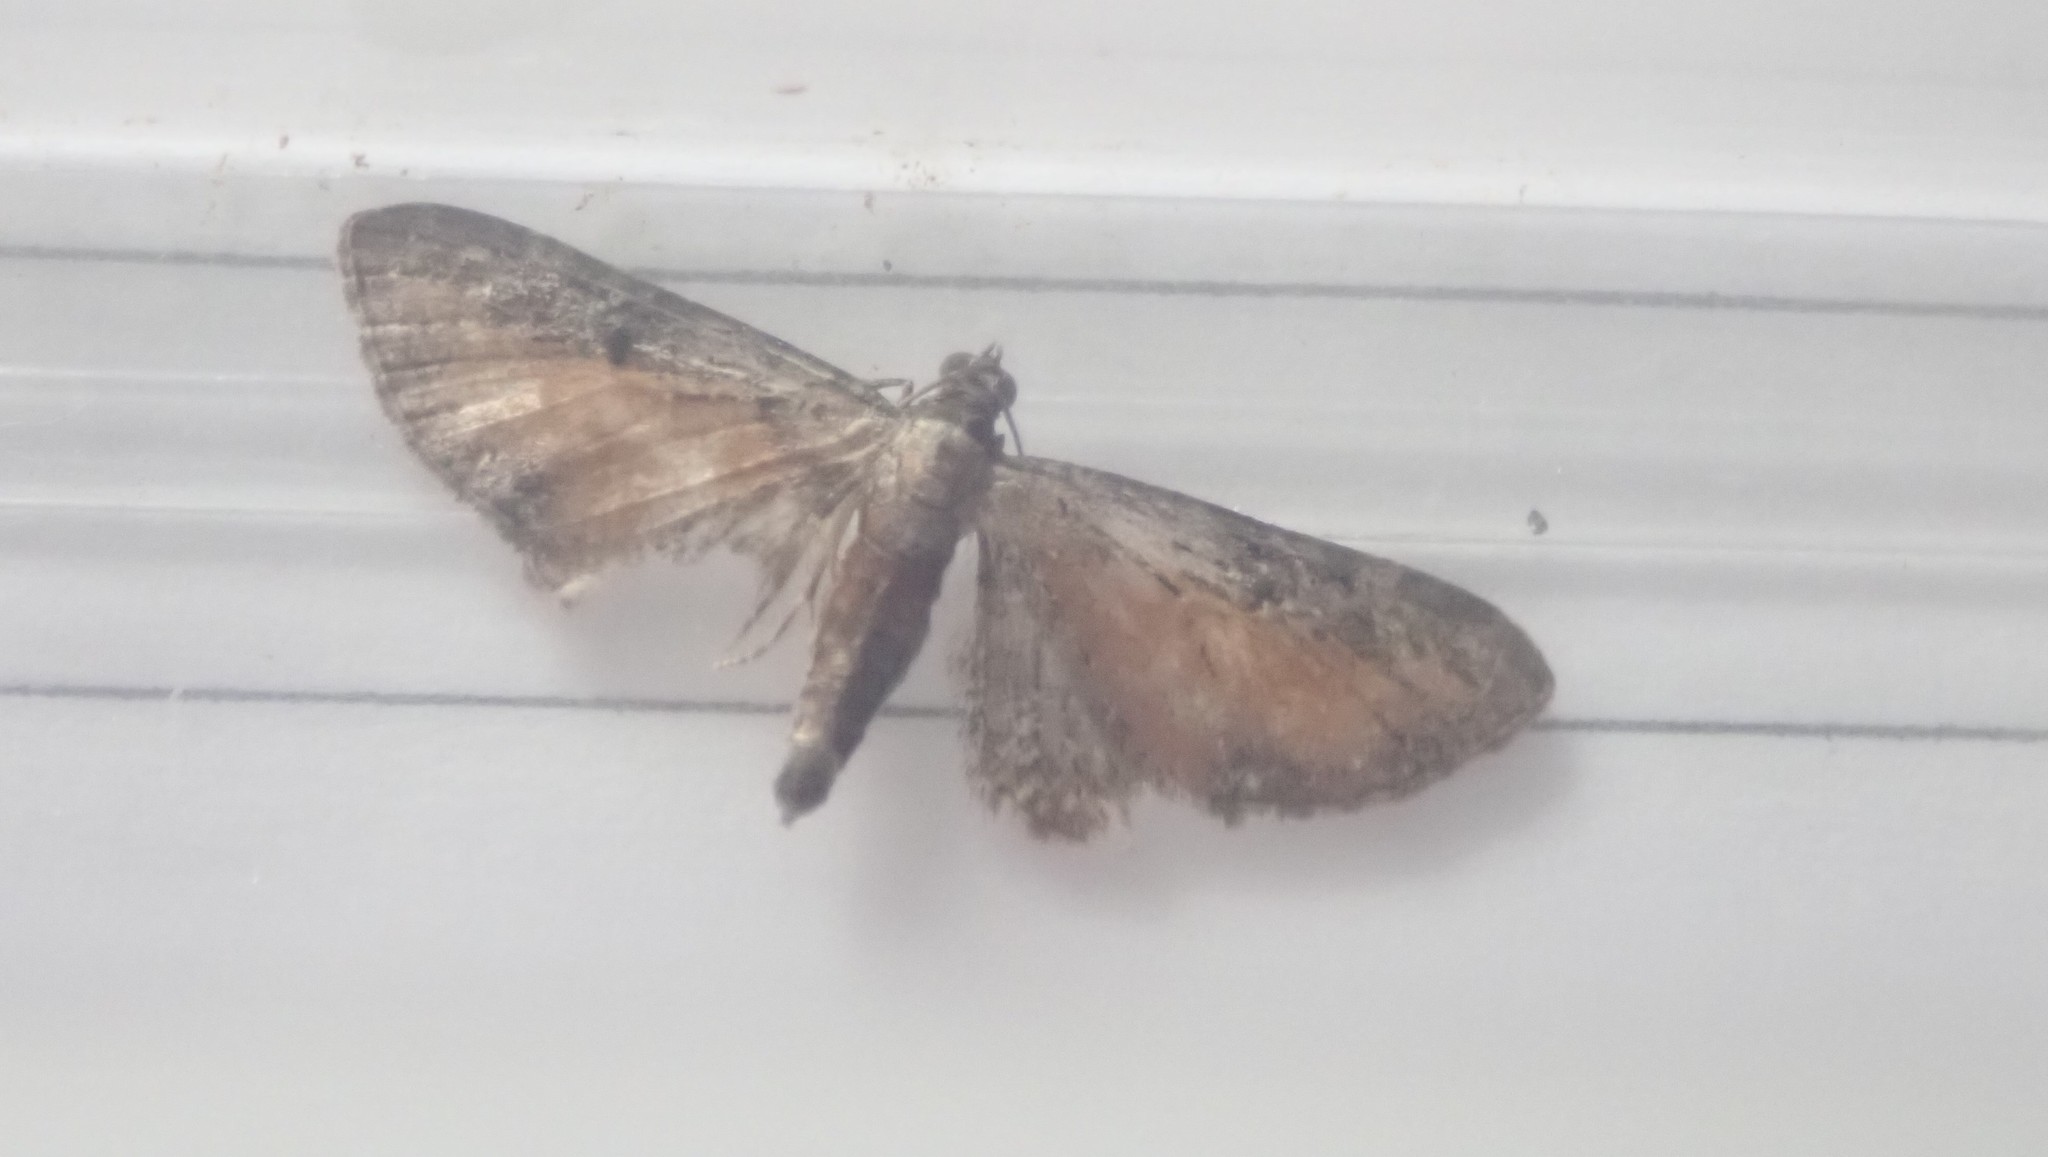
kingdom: Animalia
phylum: Arthropoda
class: Insecta
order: Lepidoptera
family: Geometridae
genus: Eupithecia
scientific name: Eupithecia icterata
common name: Tawny speckled pug
